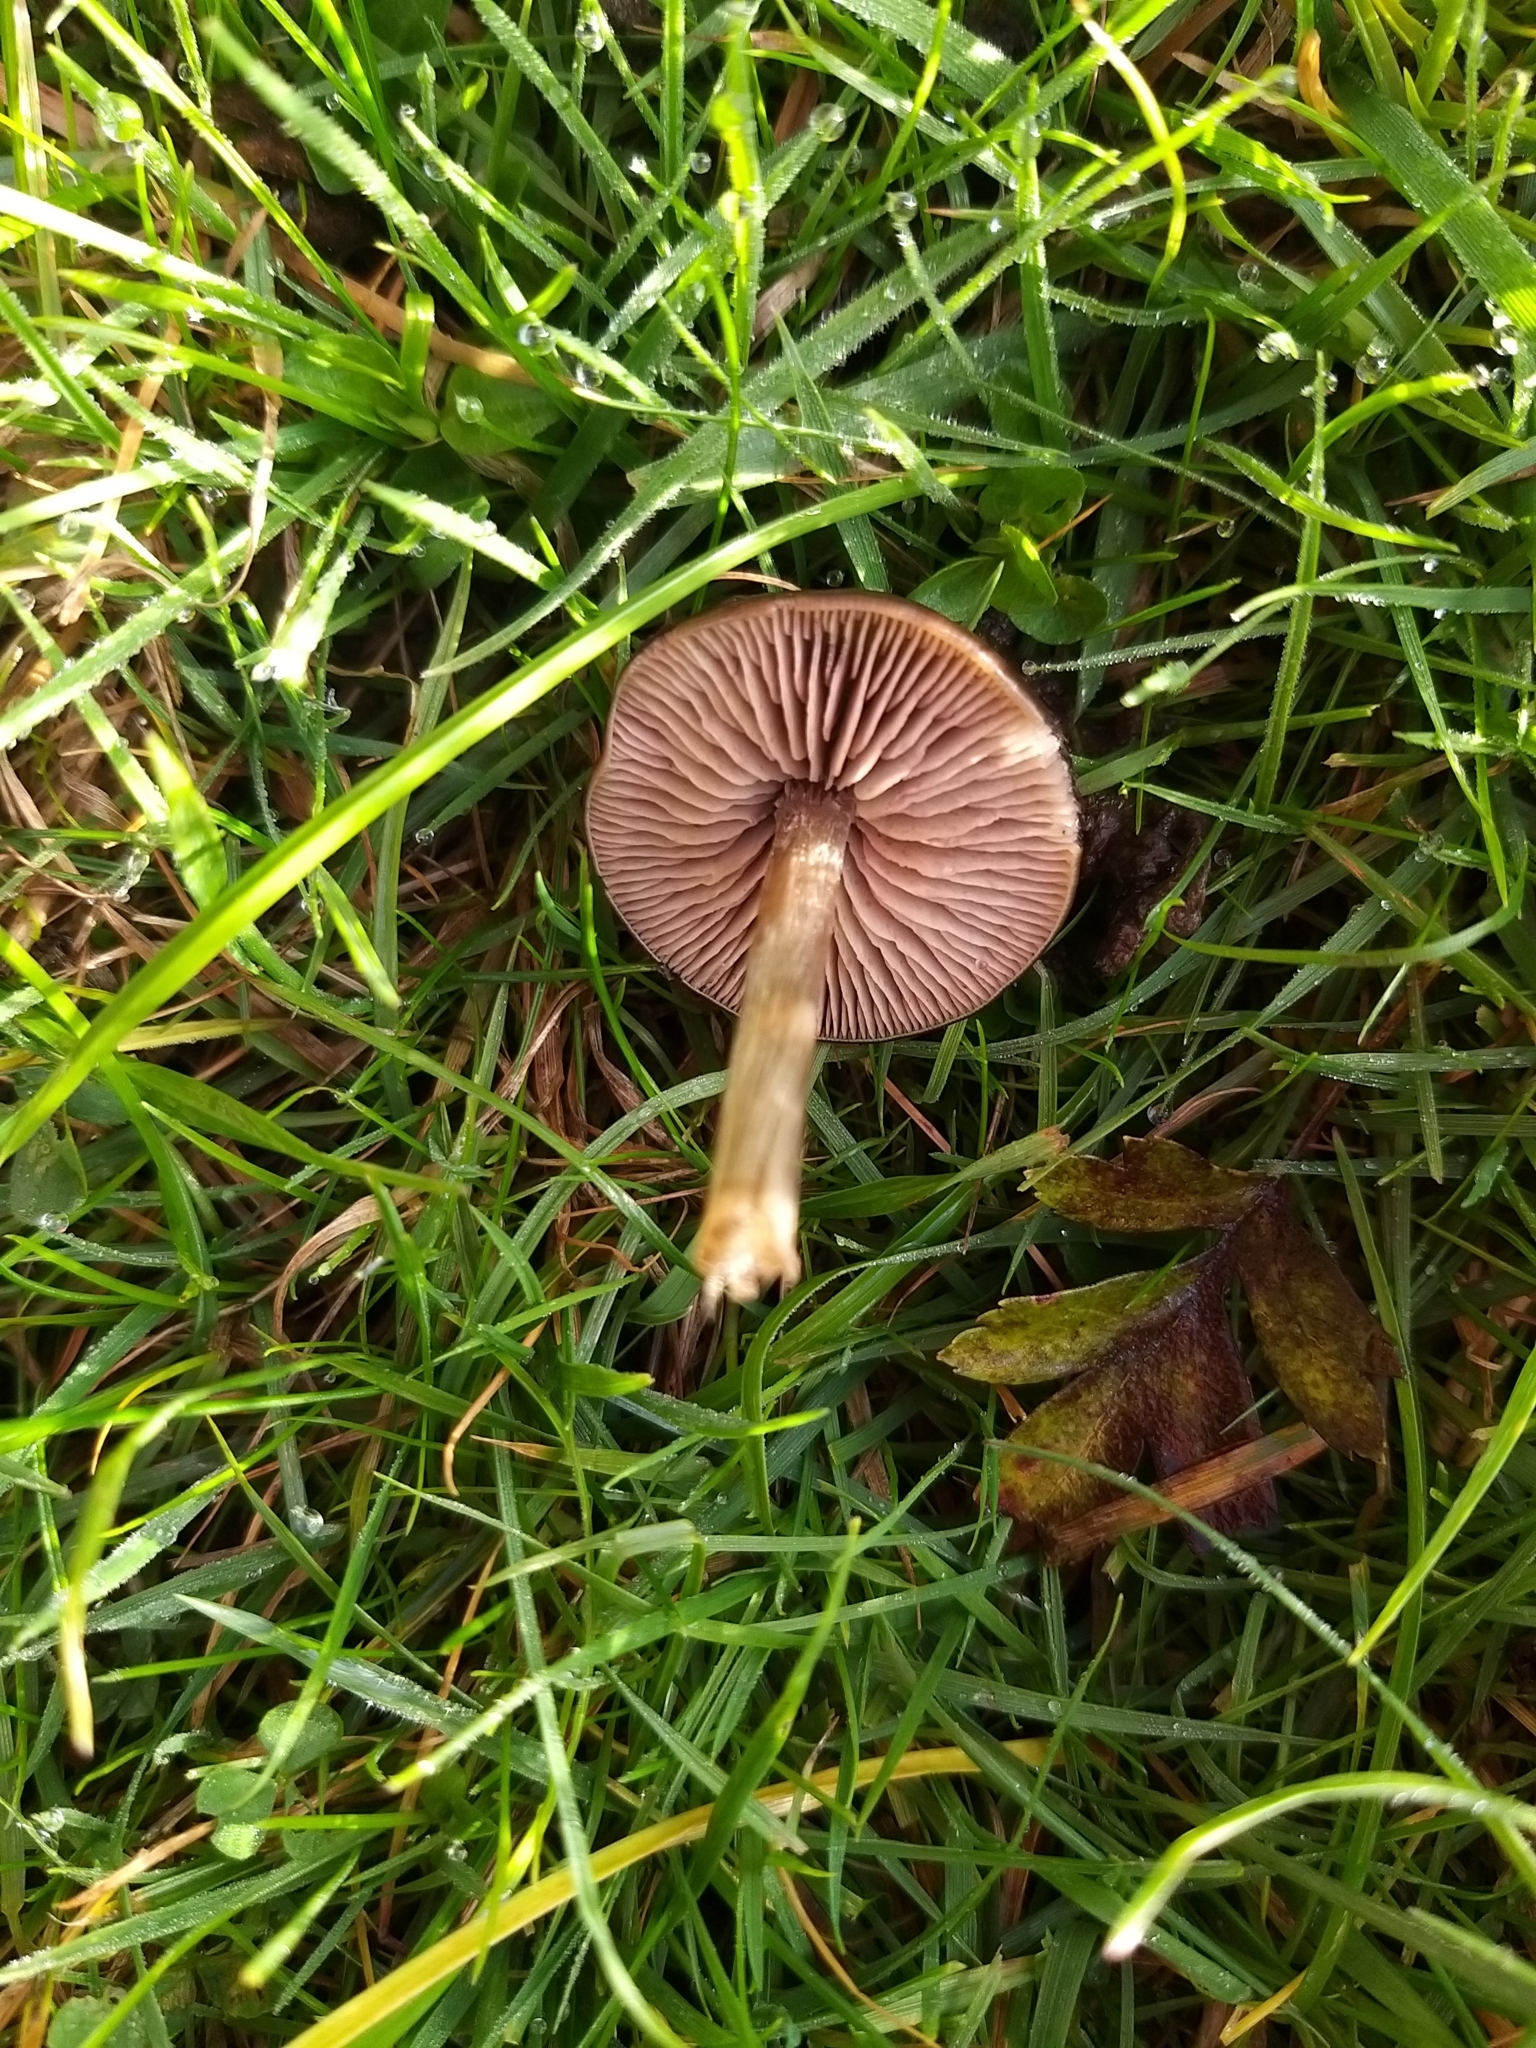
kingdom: Fungi
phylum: Basidiomycota
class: Agaricomycetes
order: Agaricales
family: Entolomataceae
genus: Entoloma
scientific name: Entoloma sericeum
